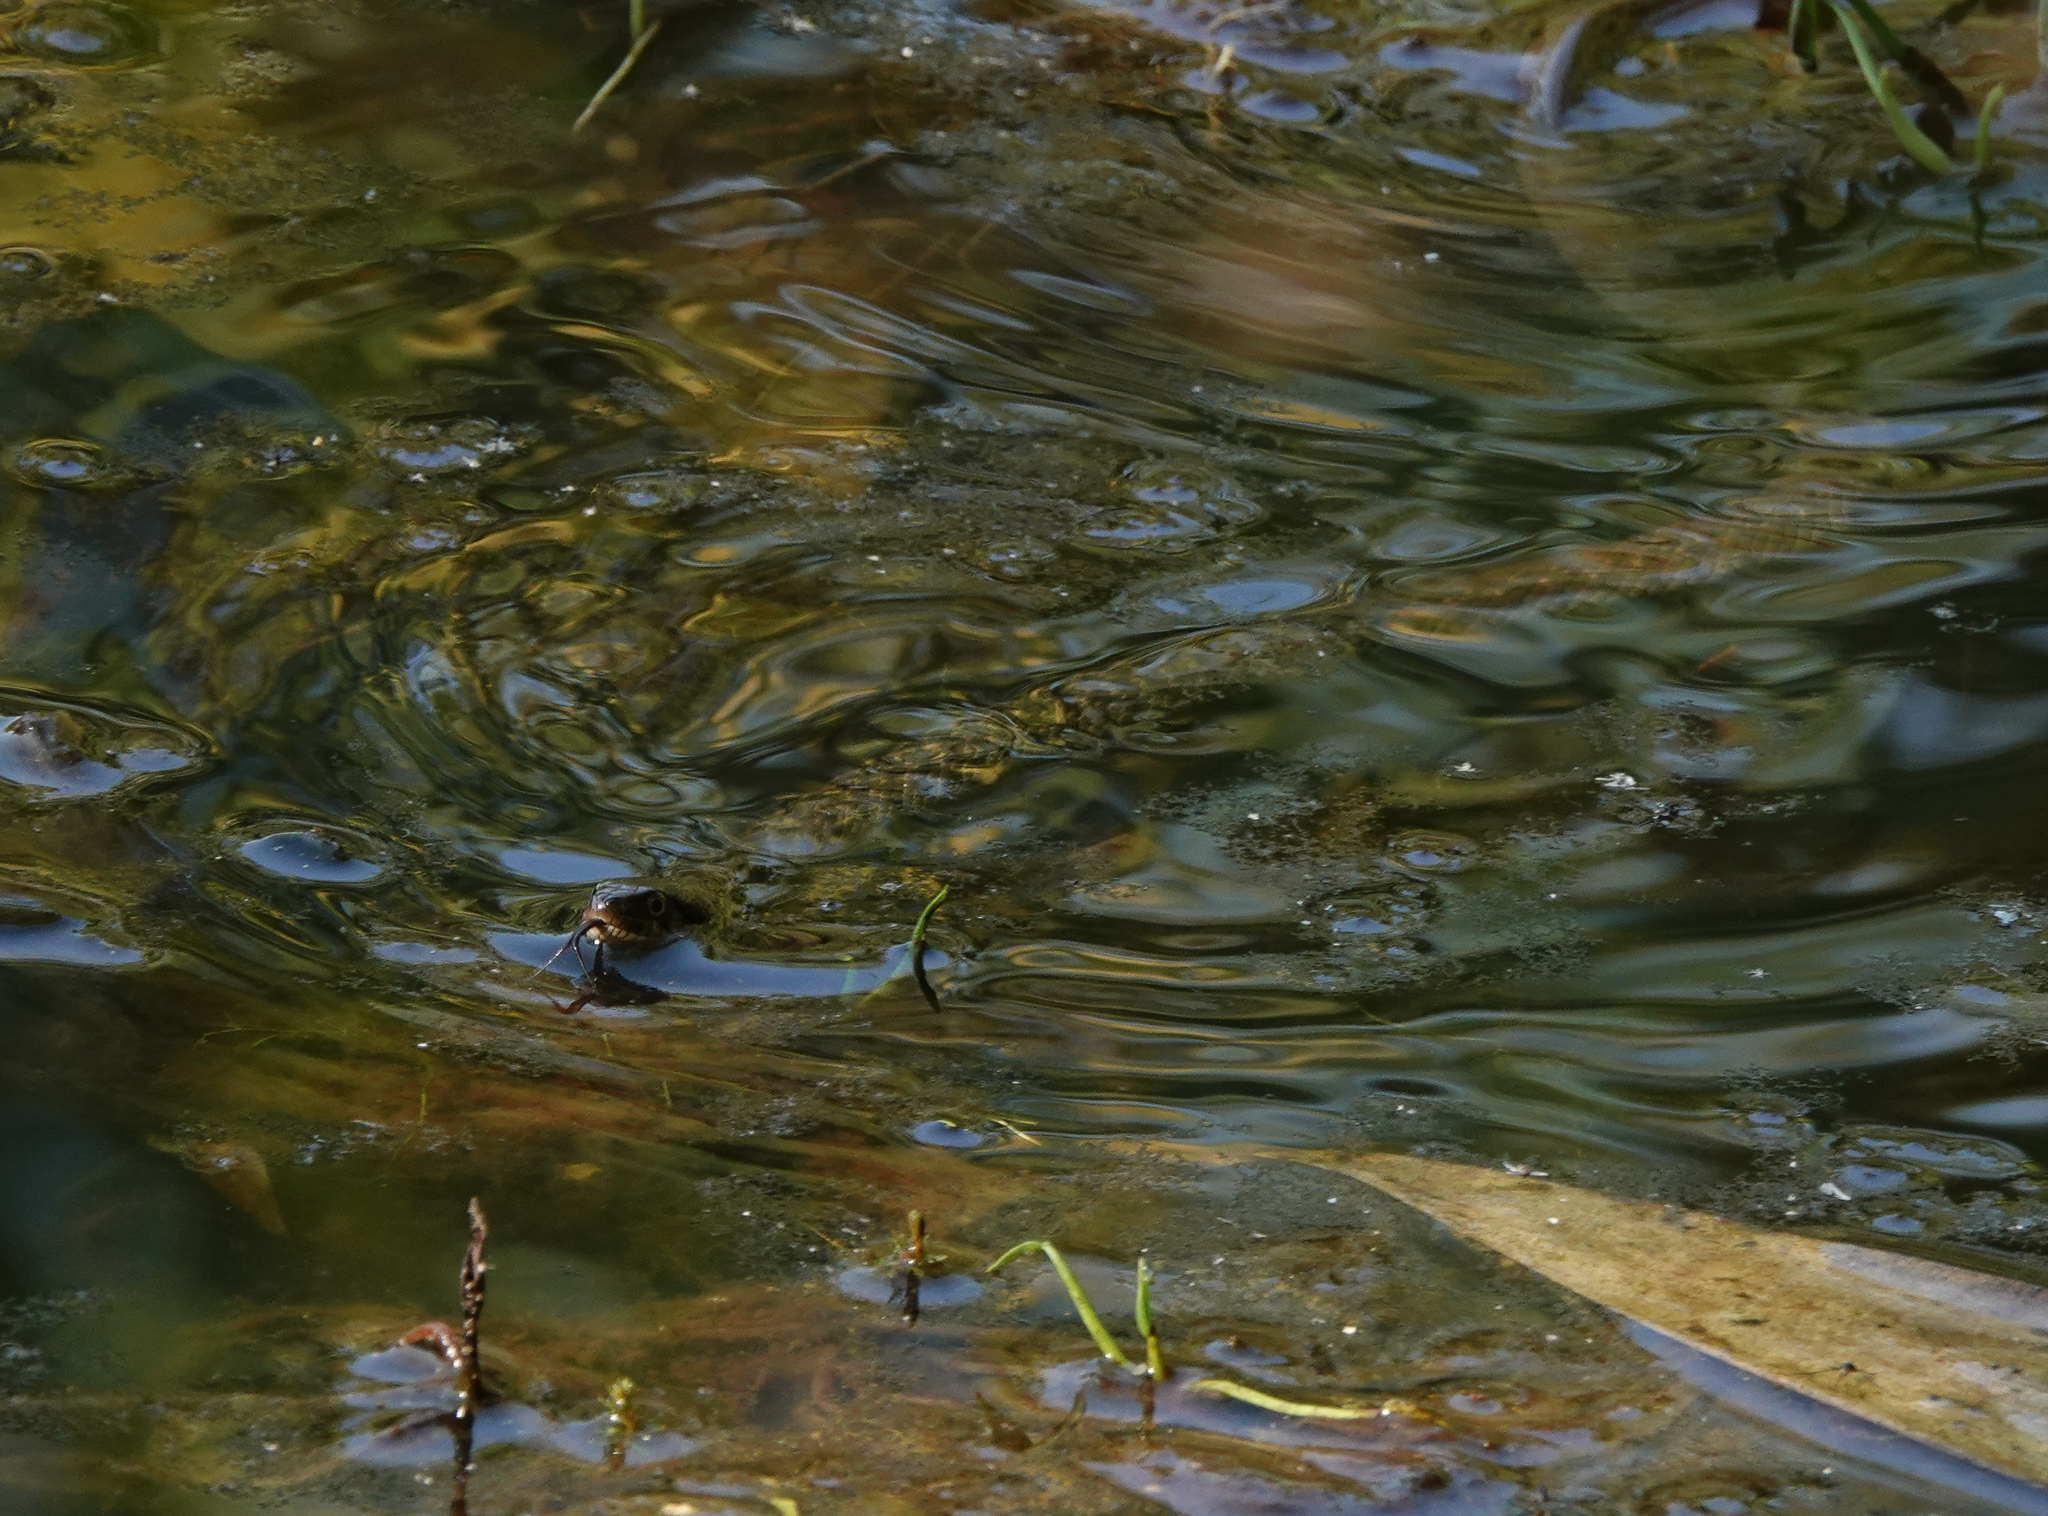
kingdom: Animalia
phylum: Chordata
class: Squamata
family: Colubridae
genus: Fowlea
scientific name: Fowlea piscator
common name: Asiatic water snake
